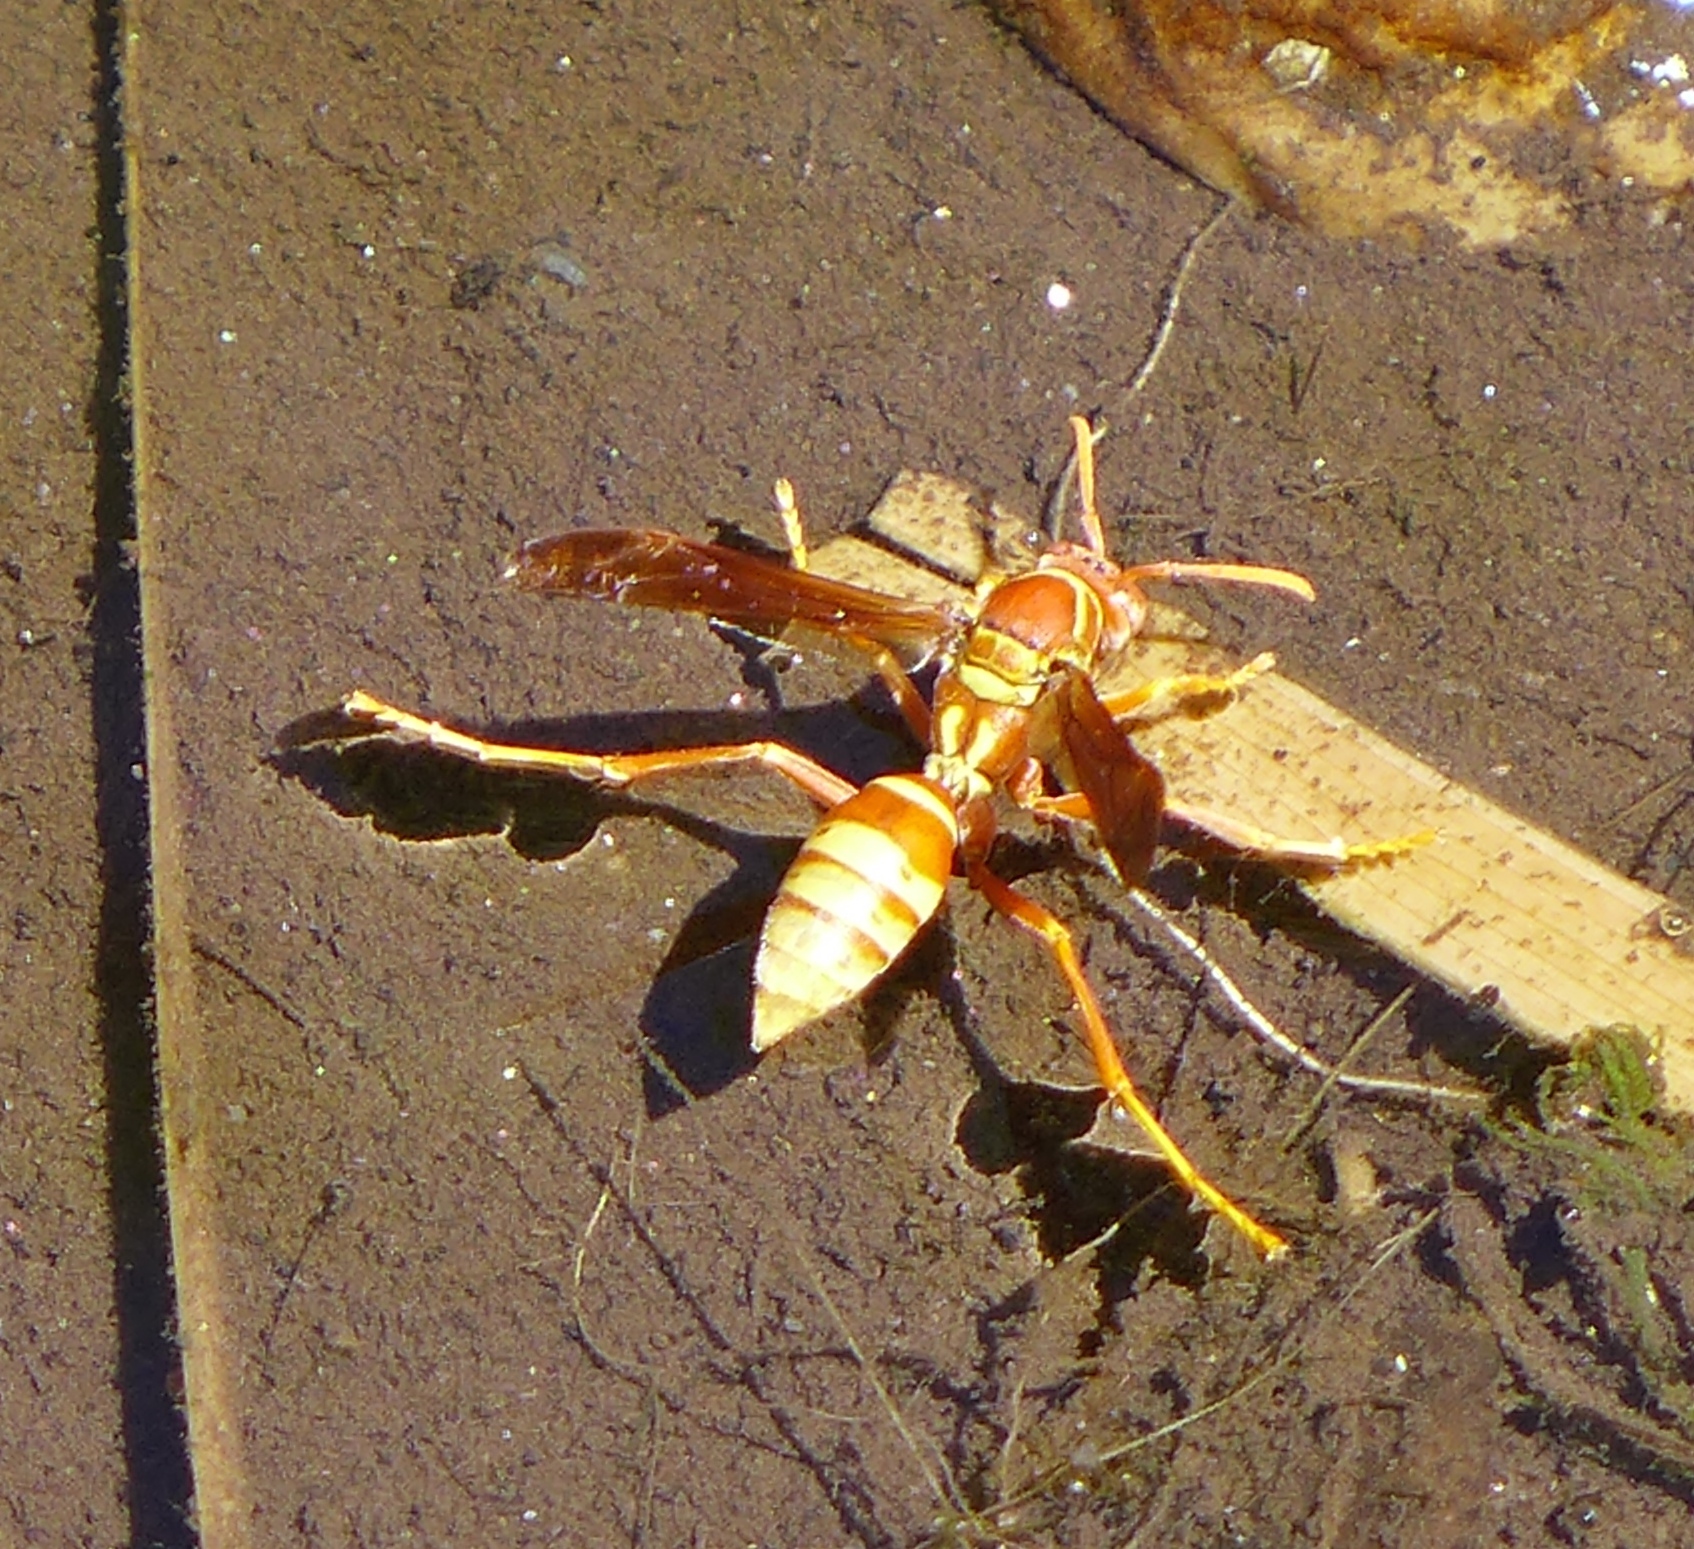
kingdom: Animalia
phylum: Arthropoda
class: Insecta
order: Hymenoptera
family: Eumenidae
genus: Polistes
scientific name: Polistes palmarum
